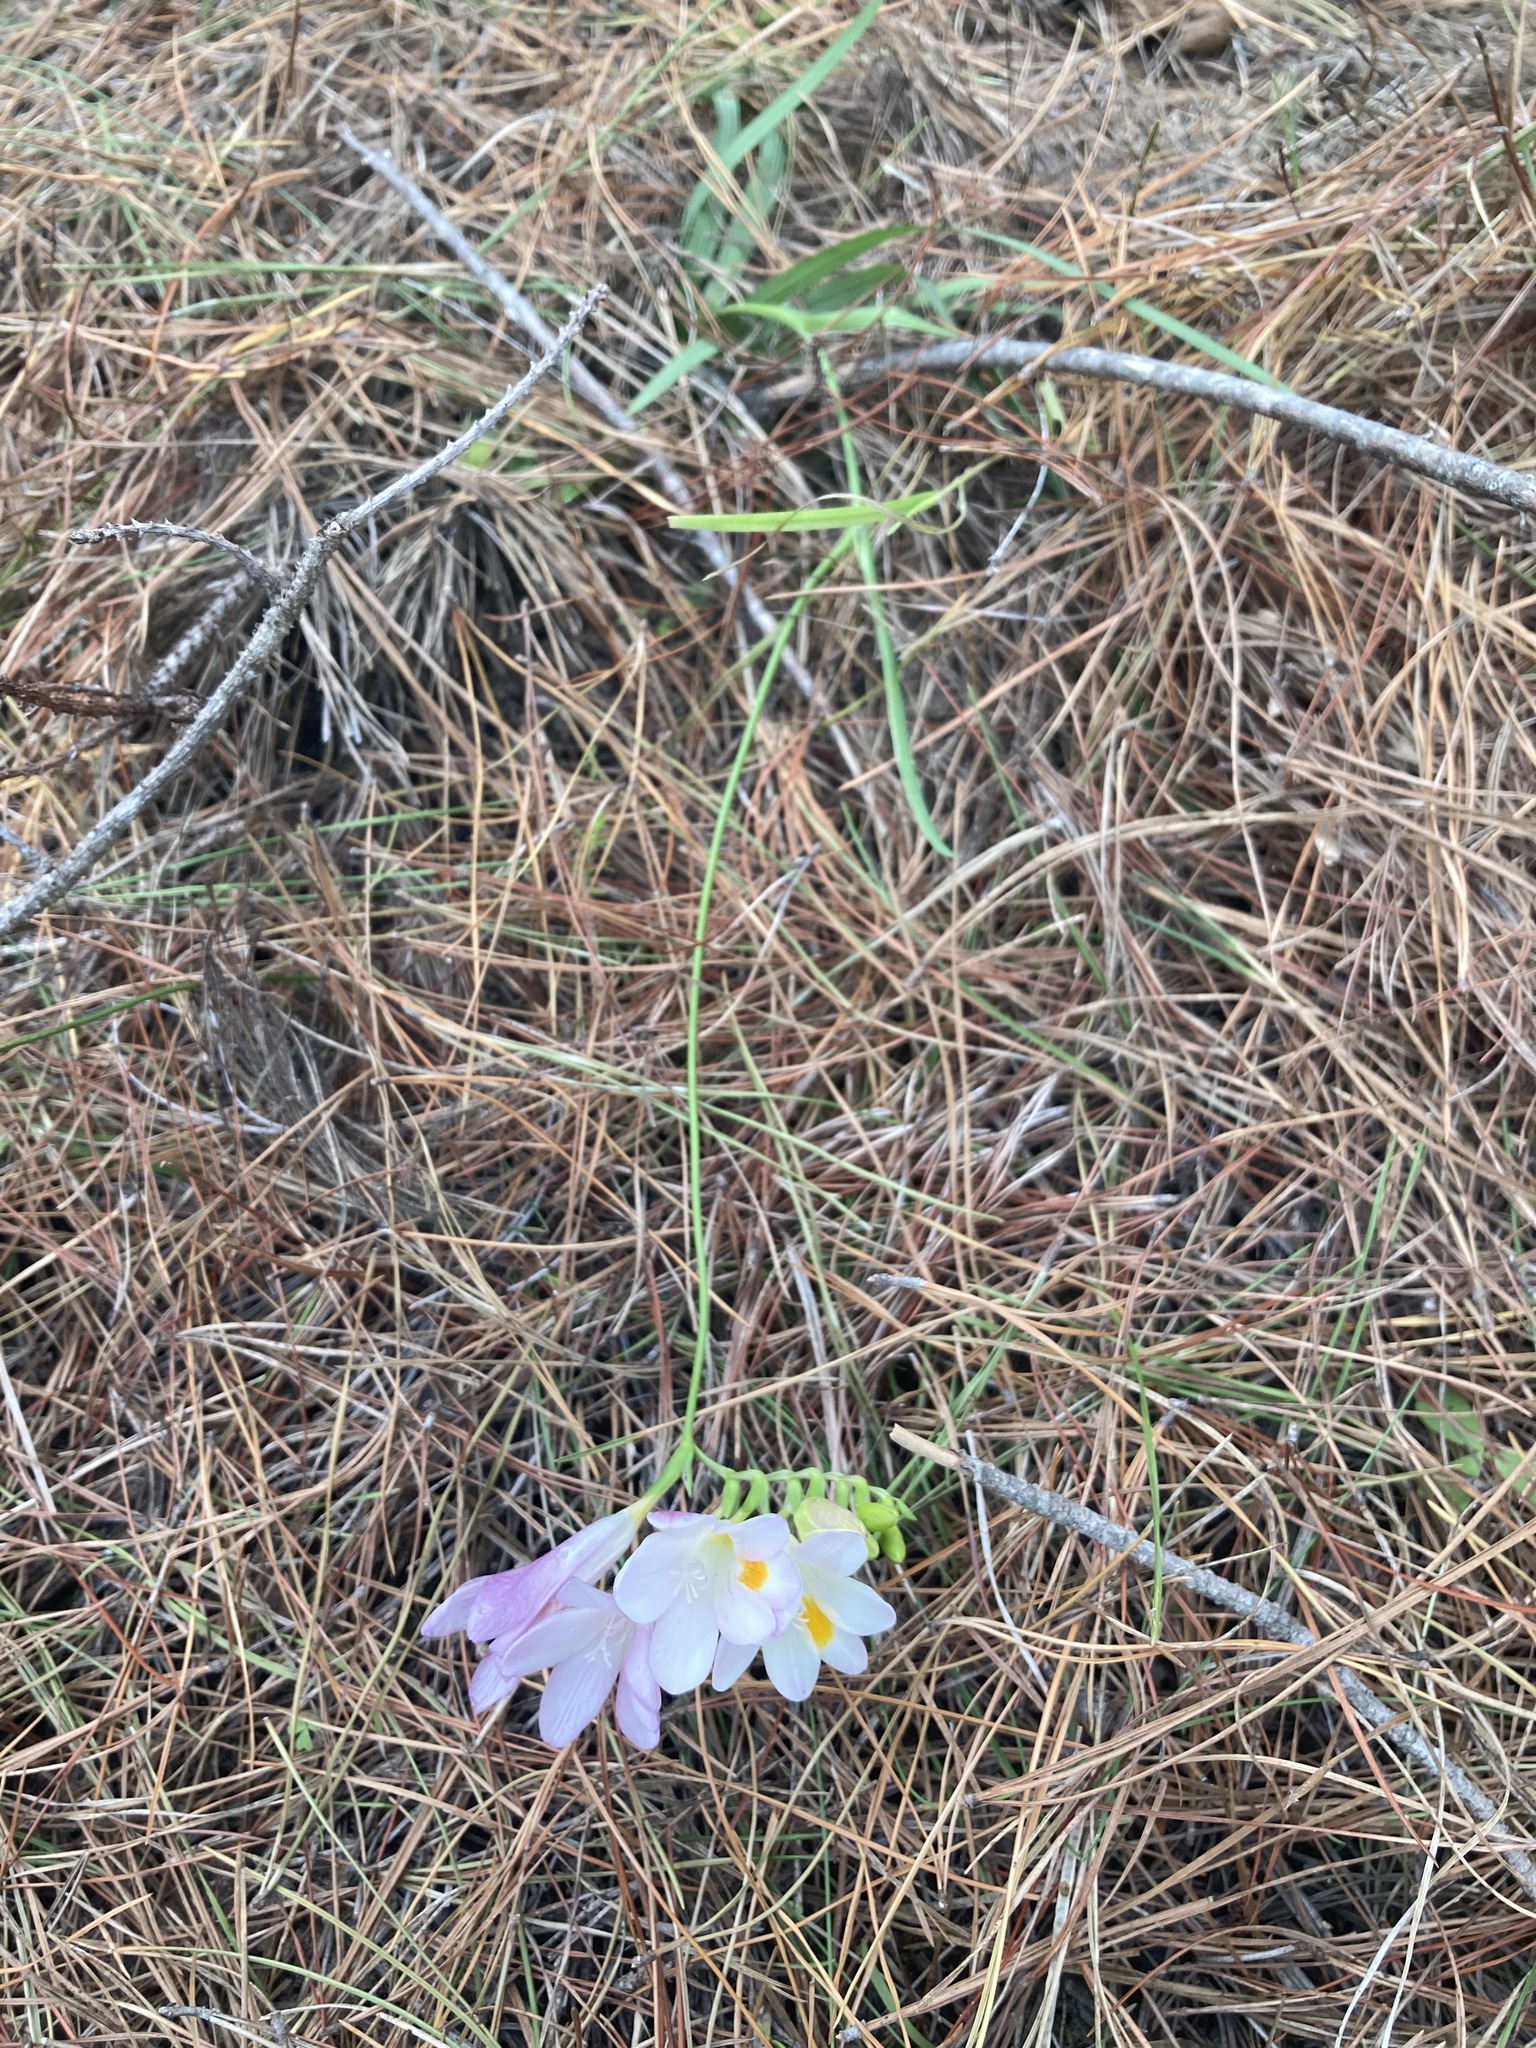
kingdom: Plantae
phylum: Tracheophyta
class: Liliopsida
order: Asparagales
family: Iridaceae
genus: Freesia
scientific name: Freesia leichtlinii
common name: Freesia
